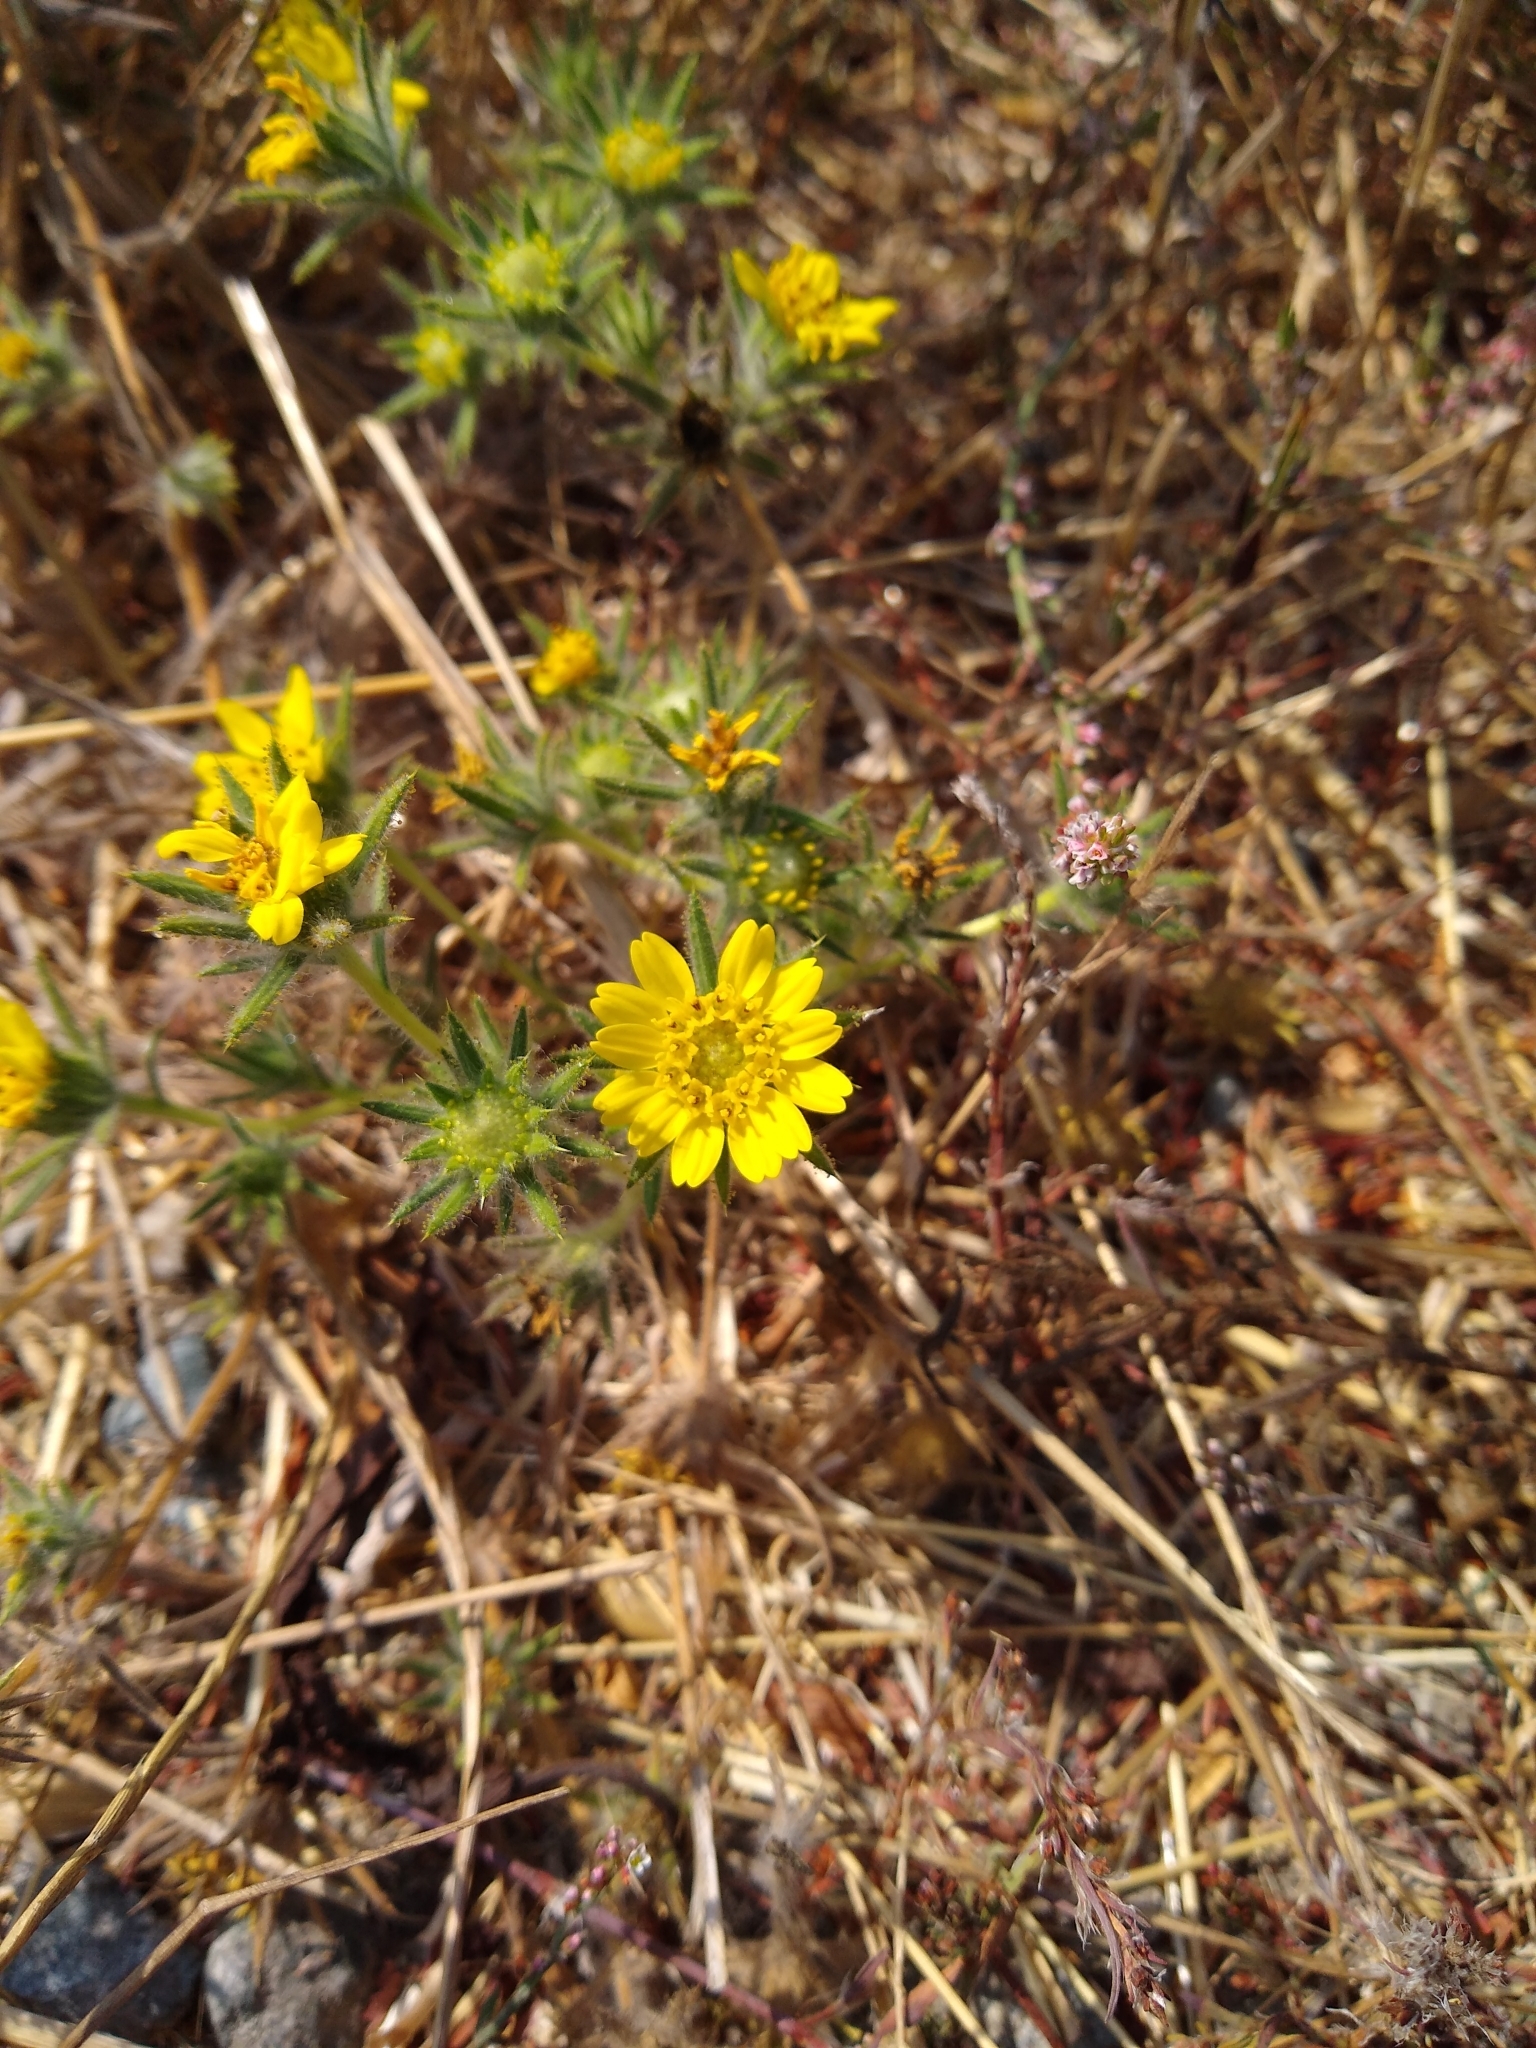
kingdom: Plantae
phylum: Tracheophyta
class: Magnoliopsida
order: Asterales
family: Asteraceae
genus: Centromadia
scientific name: Centromadia fitchii
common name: Fitch's spikeweed
